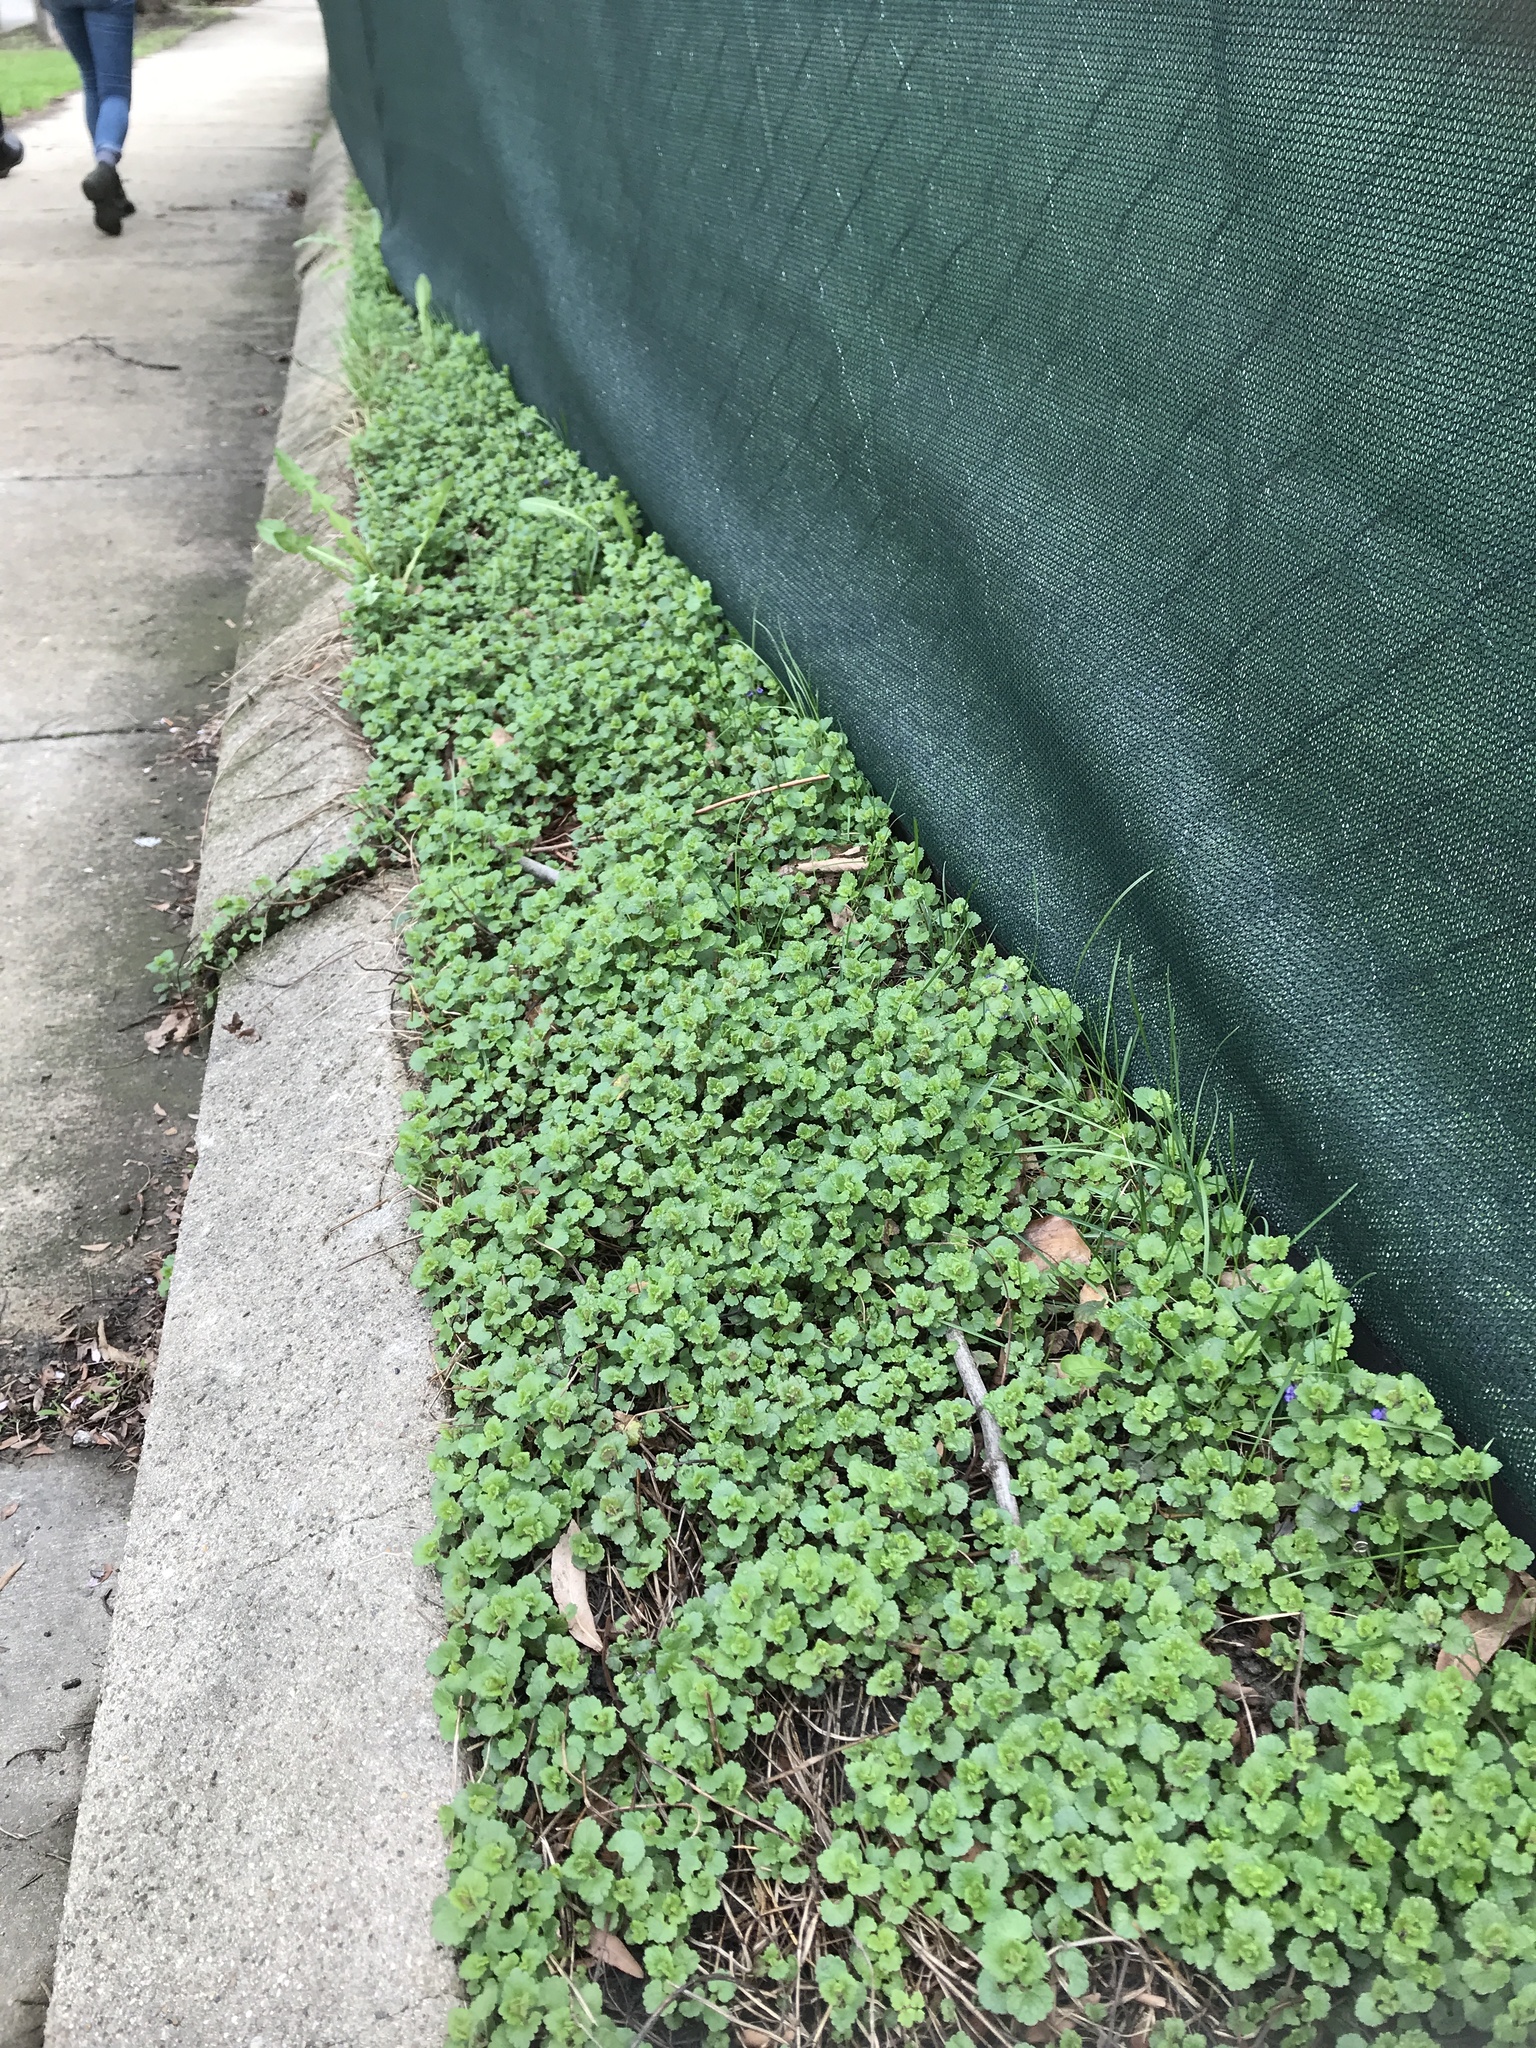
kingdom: Plantae
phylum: Tracheophyta
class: Magnoliopsida
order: Lamiales
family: Lamiaceae
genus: Glechoma
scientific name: Glechoma hederacea
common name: Ground ivy
